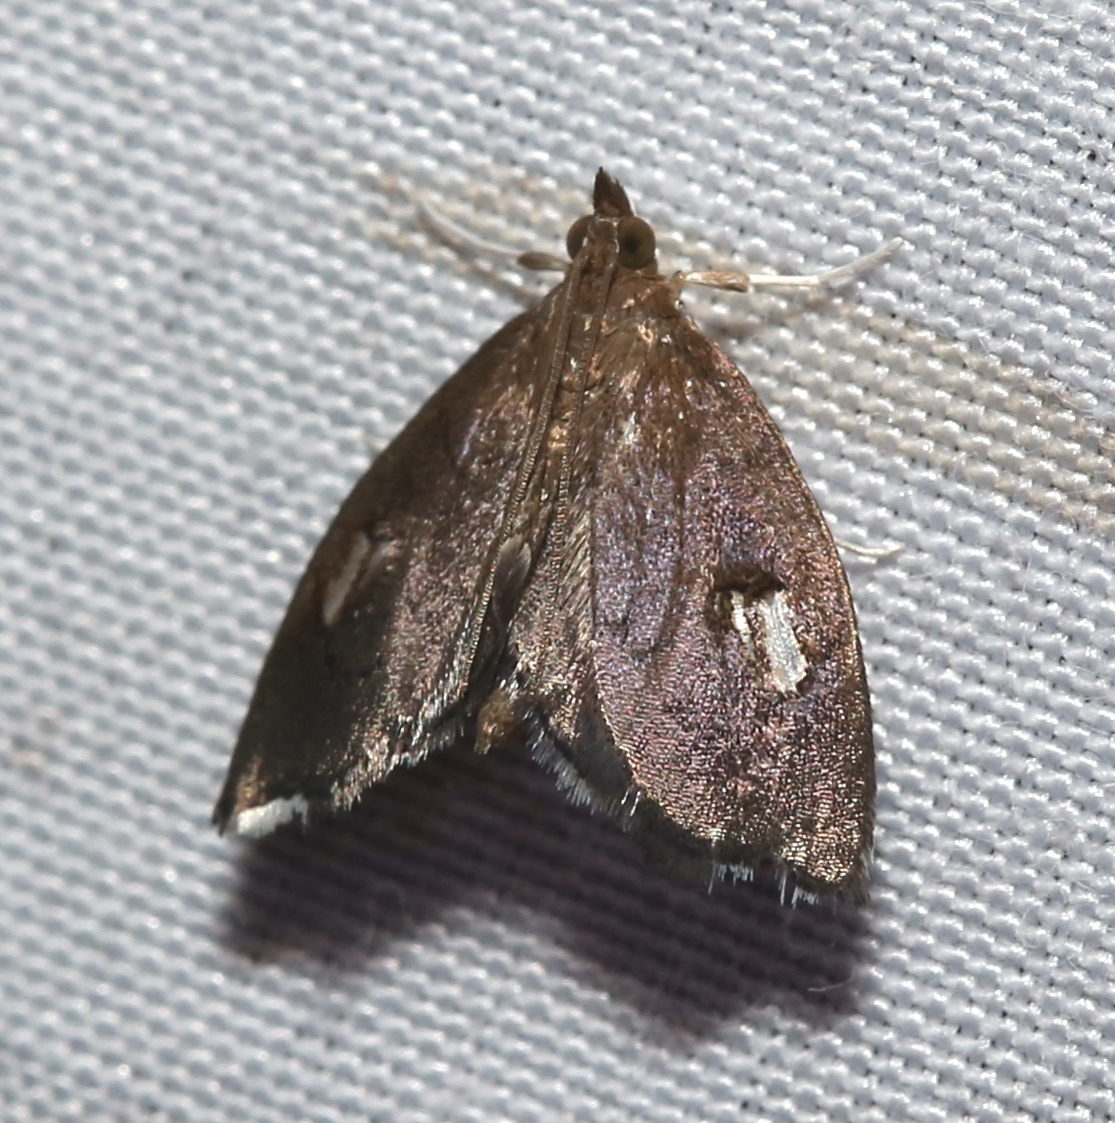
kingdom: Animalia
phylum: Arthropoda
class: Insecta
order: Lepidoptera
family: Crambidae
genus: Perispasta
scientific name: Perispasta caeculalis
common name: Titian peale's moth
